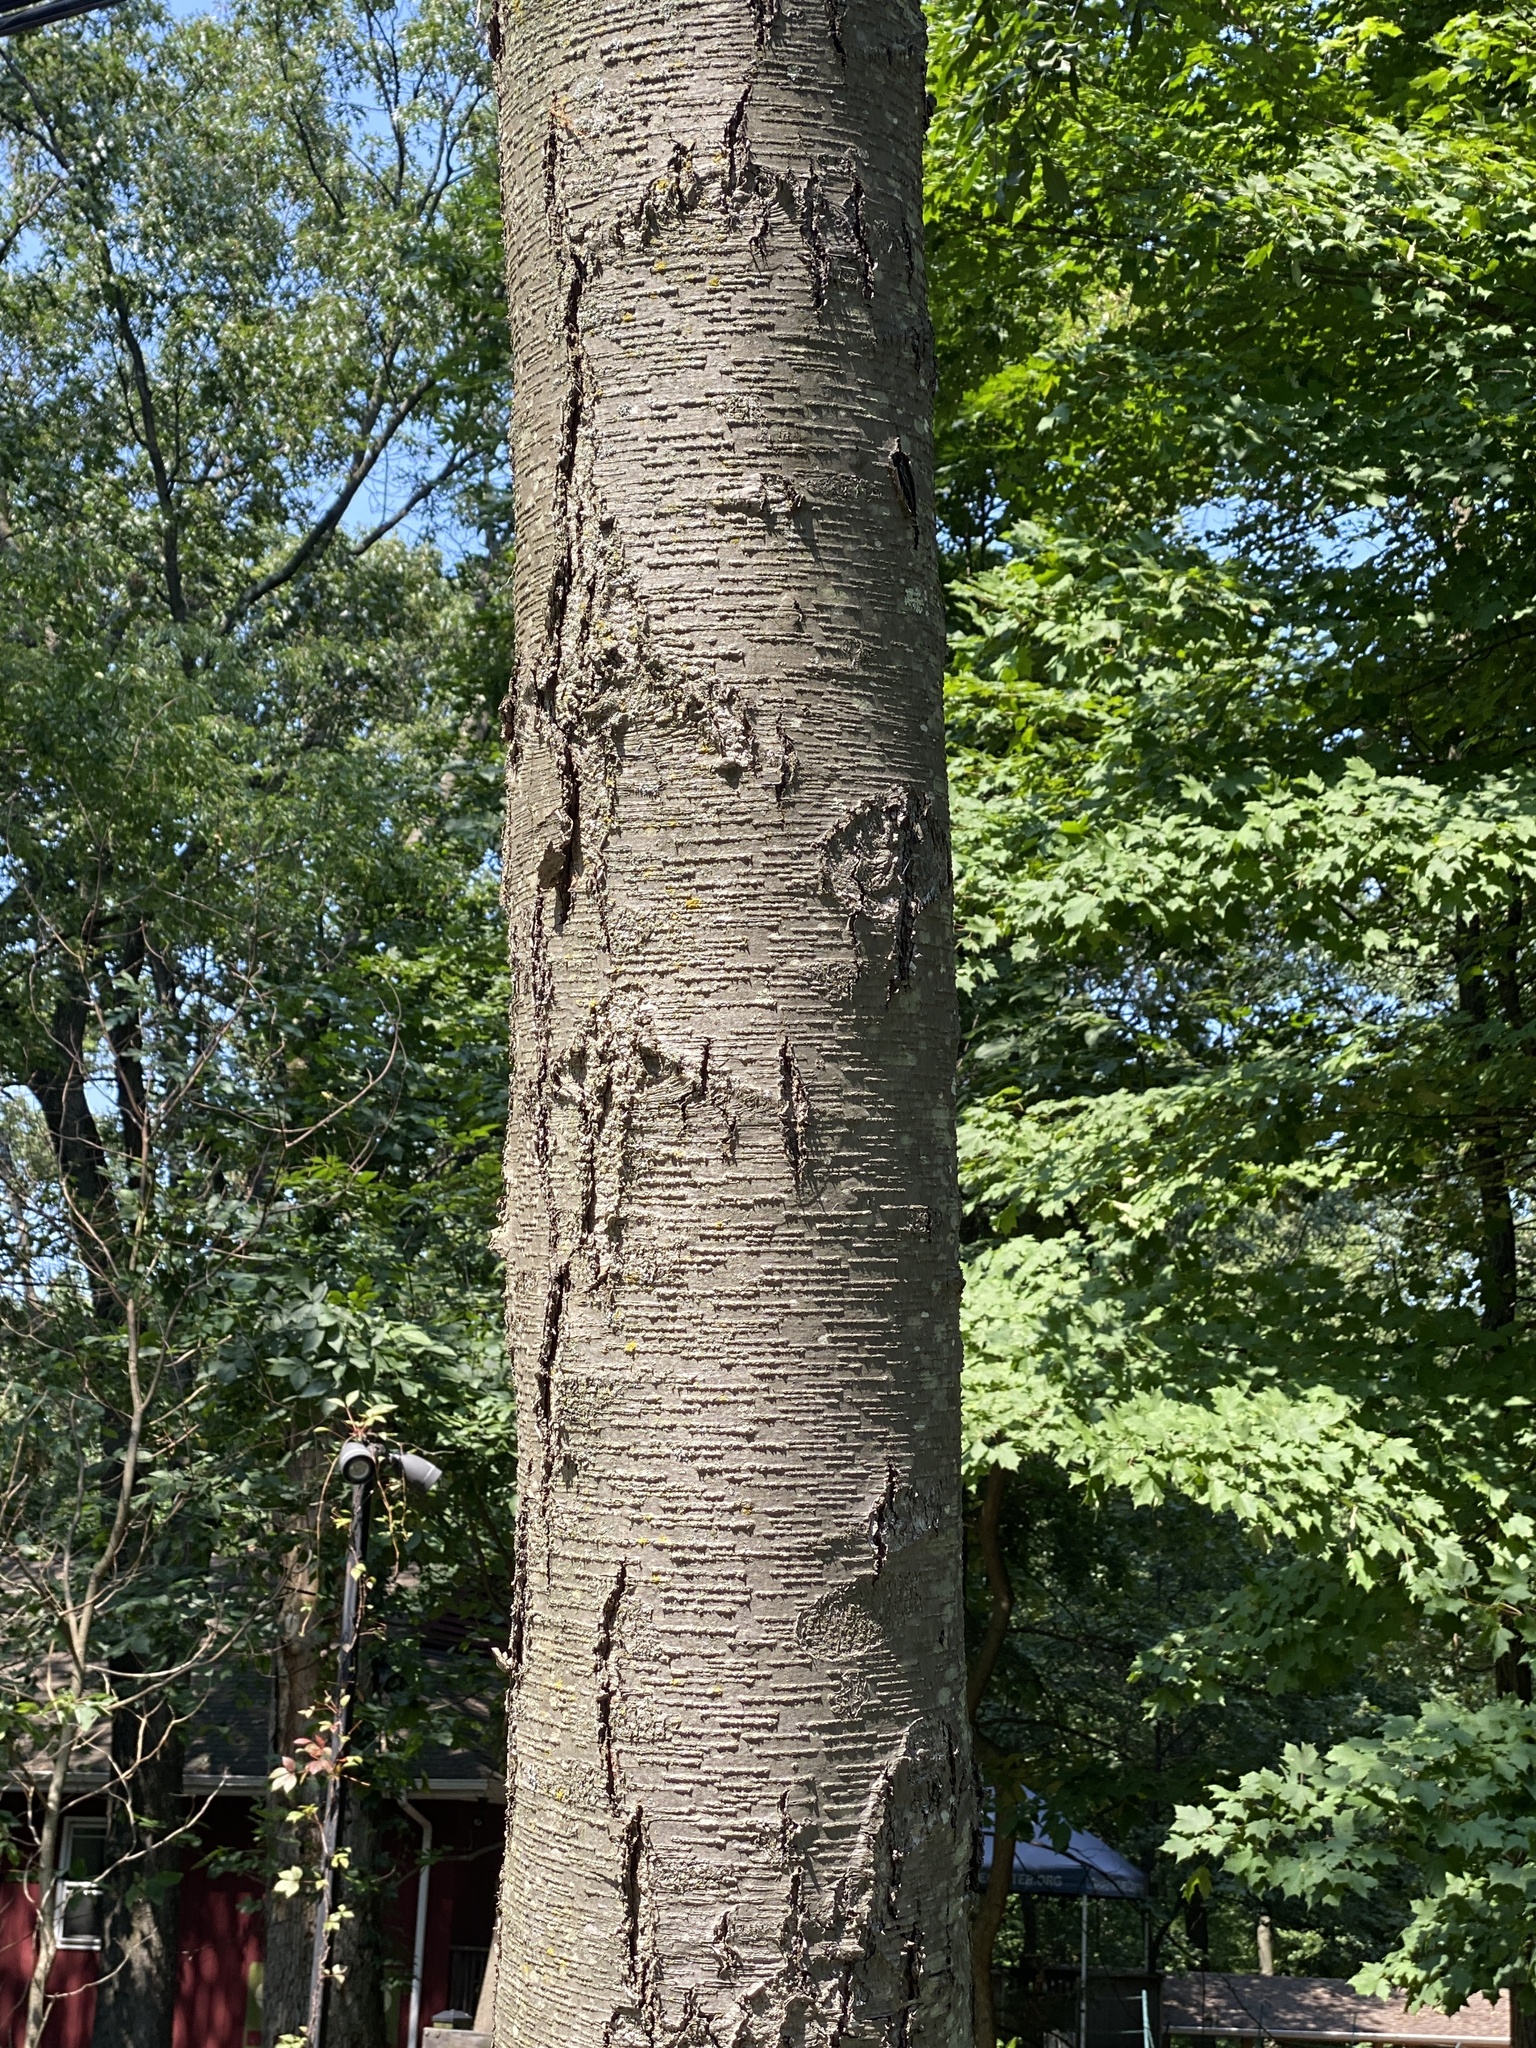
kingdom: Plantae
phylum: Tracheophyta
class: Magnoliopsida
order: Fagales
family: Betulaceae
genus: Betula
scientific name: Betula lenta
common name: Black birch
